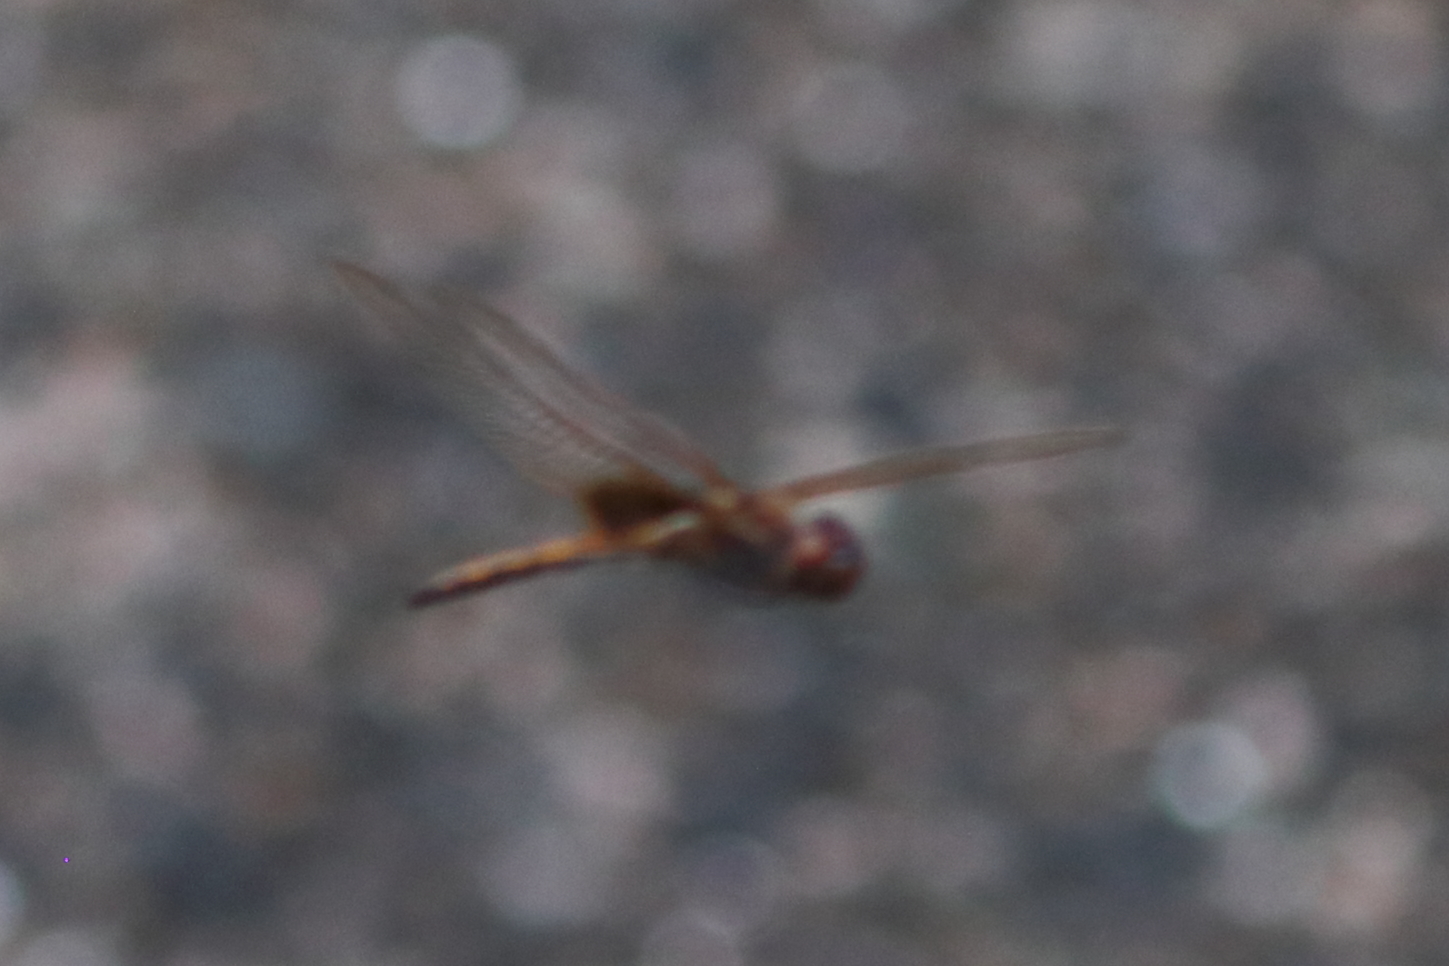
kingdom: Animalia
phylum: Arthropoda
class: Insecta
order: Odonata
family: Libellulidae
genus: Miathyria
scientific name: Miathyria marcella
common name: Hyacinth glider
